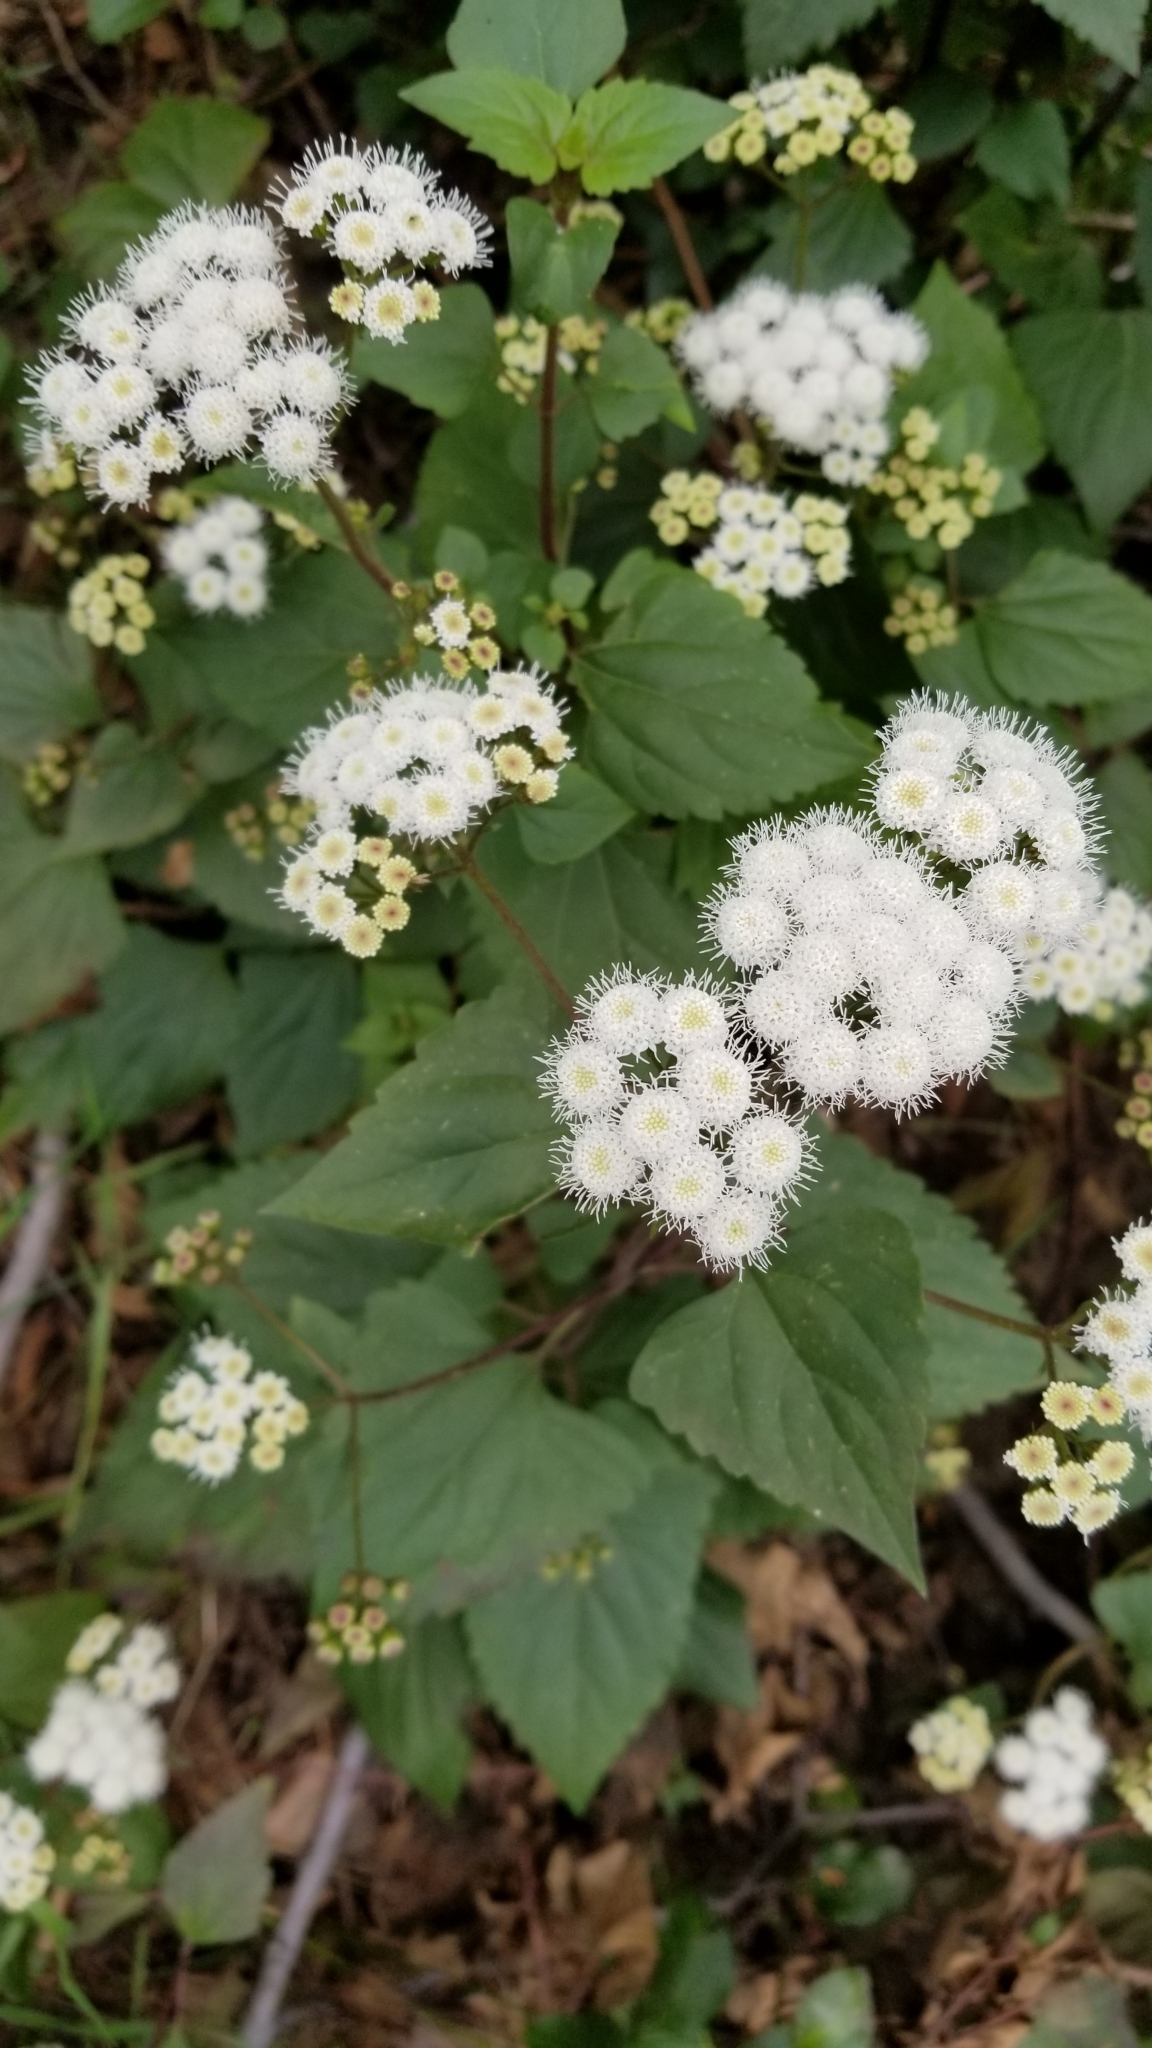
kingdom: Plantae
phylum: Tracheophyta
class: Magnoliopsida
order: Asterales
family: Asteraceae
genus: Ageratina
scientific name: Ageratina adenophora
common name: Sticky snakeroot
